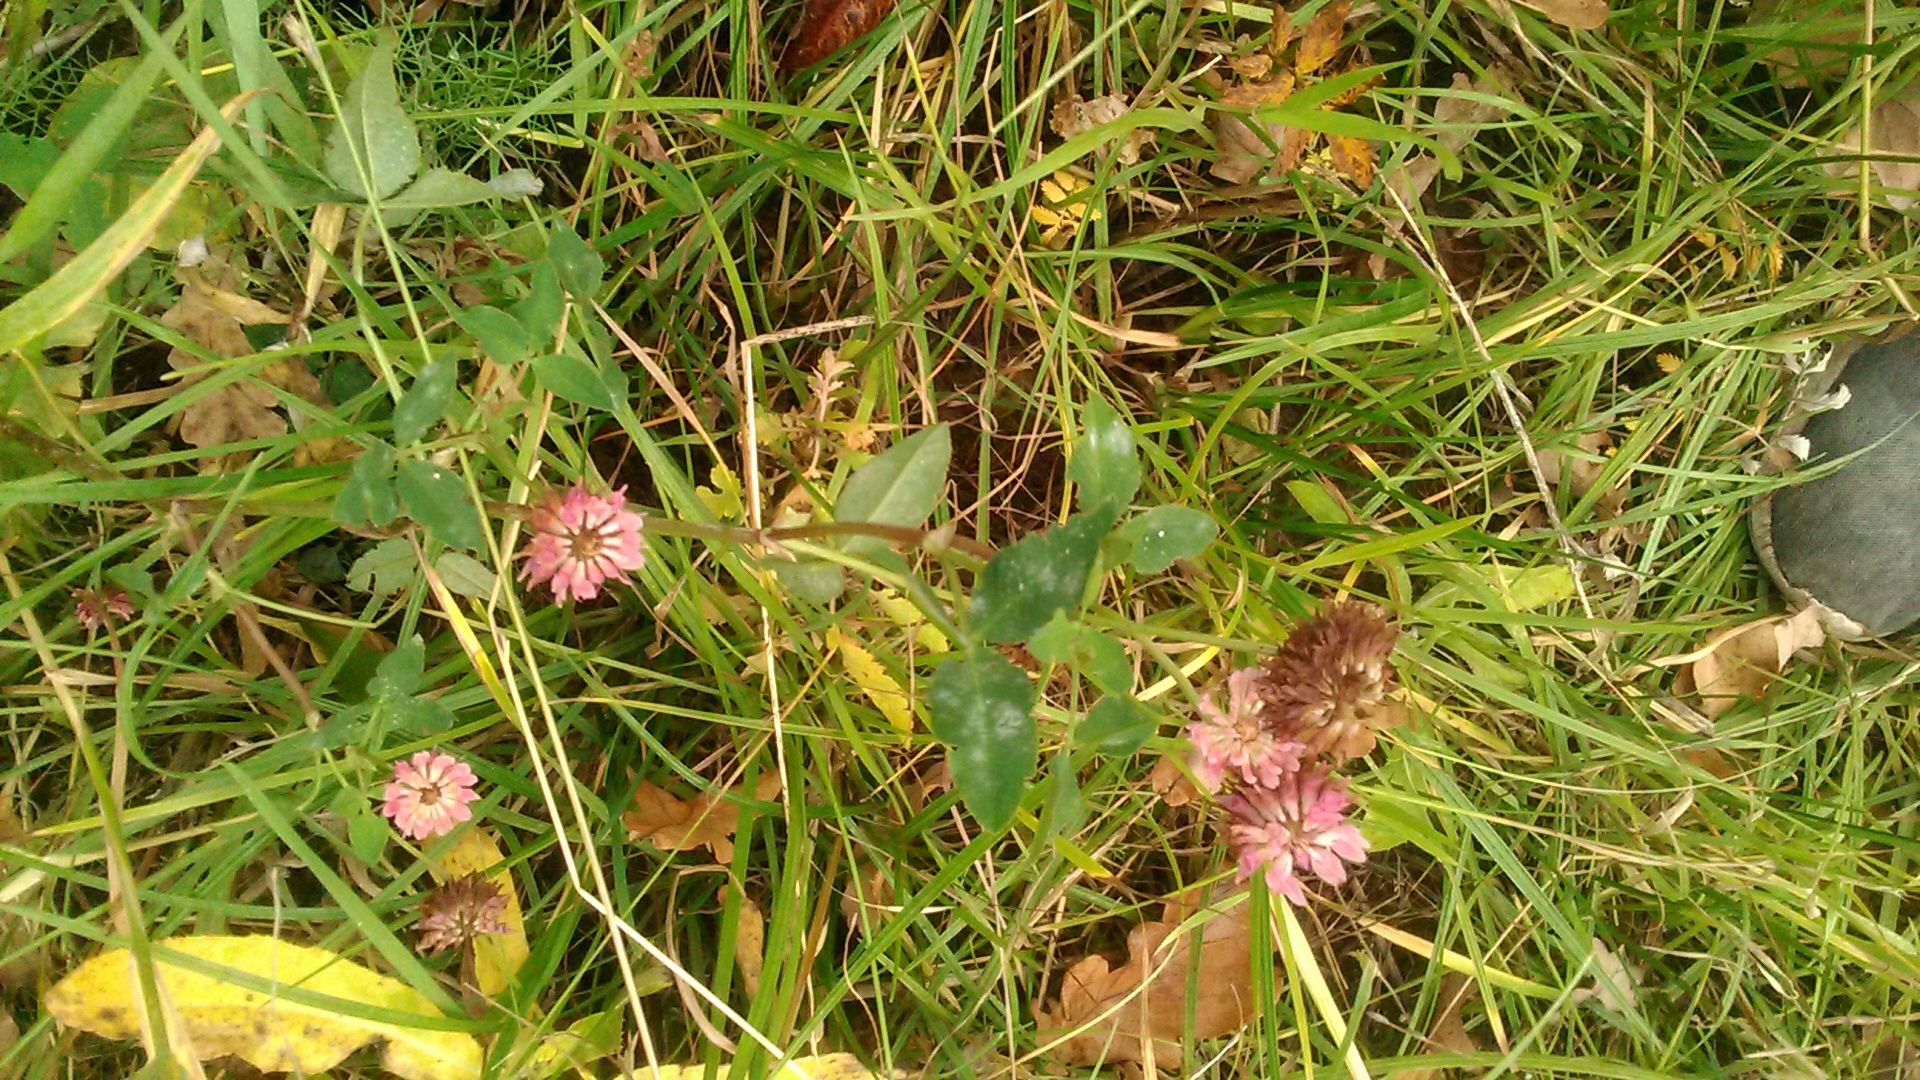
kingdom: Plantae
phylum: Tracheophyta
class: Magnoliopsida
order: Fabales
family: Fabaceae
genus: Trifolium
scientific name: Trifolium hybridum
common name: Alsike clover
